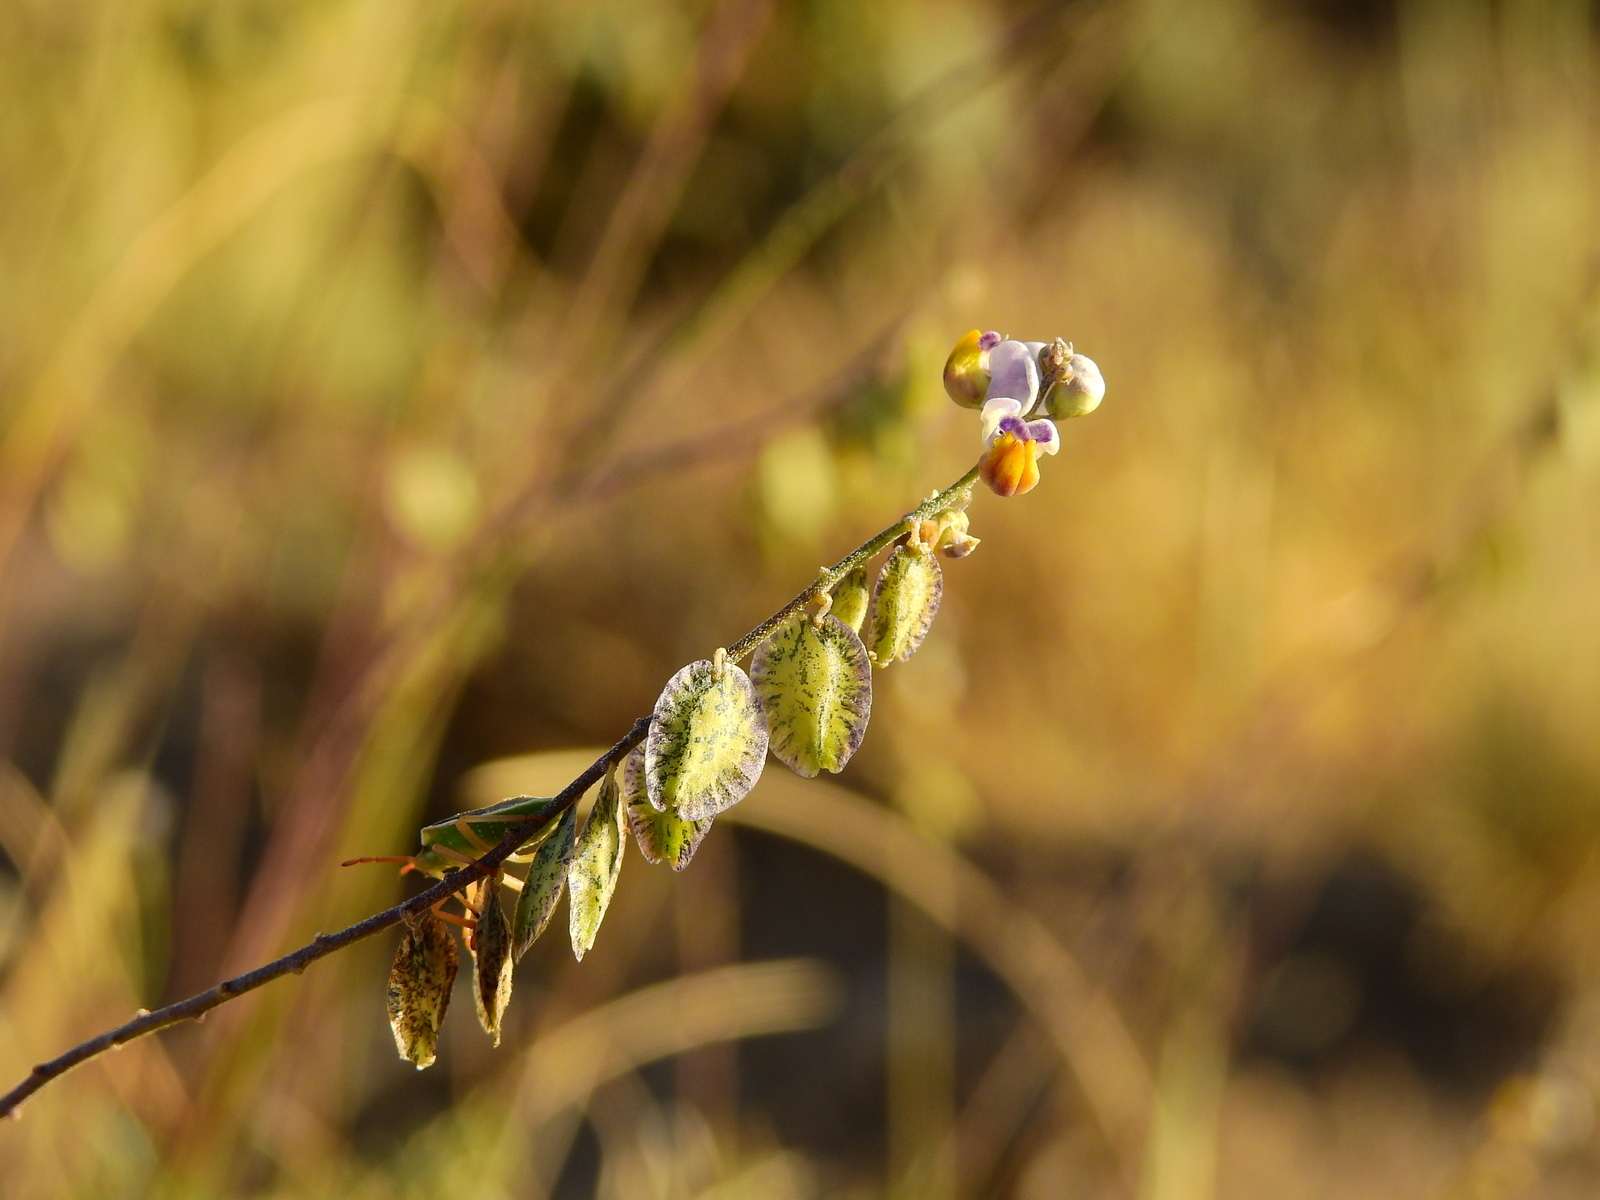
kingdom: Plantae
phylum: Tracheophyta
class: Magnoliopsida
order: Fabales
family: Polygalaceae
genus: Monnina
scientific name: Monnina dictyocarpa
